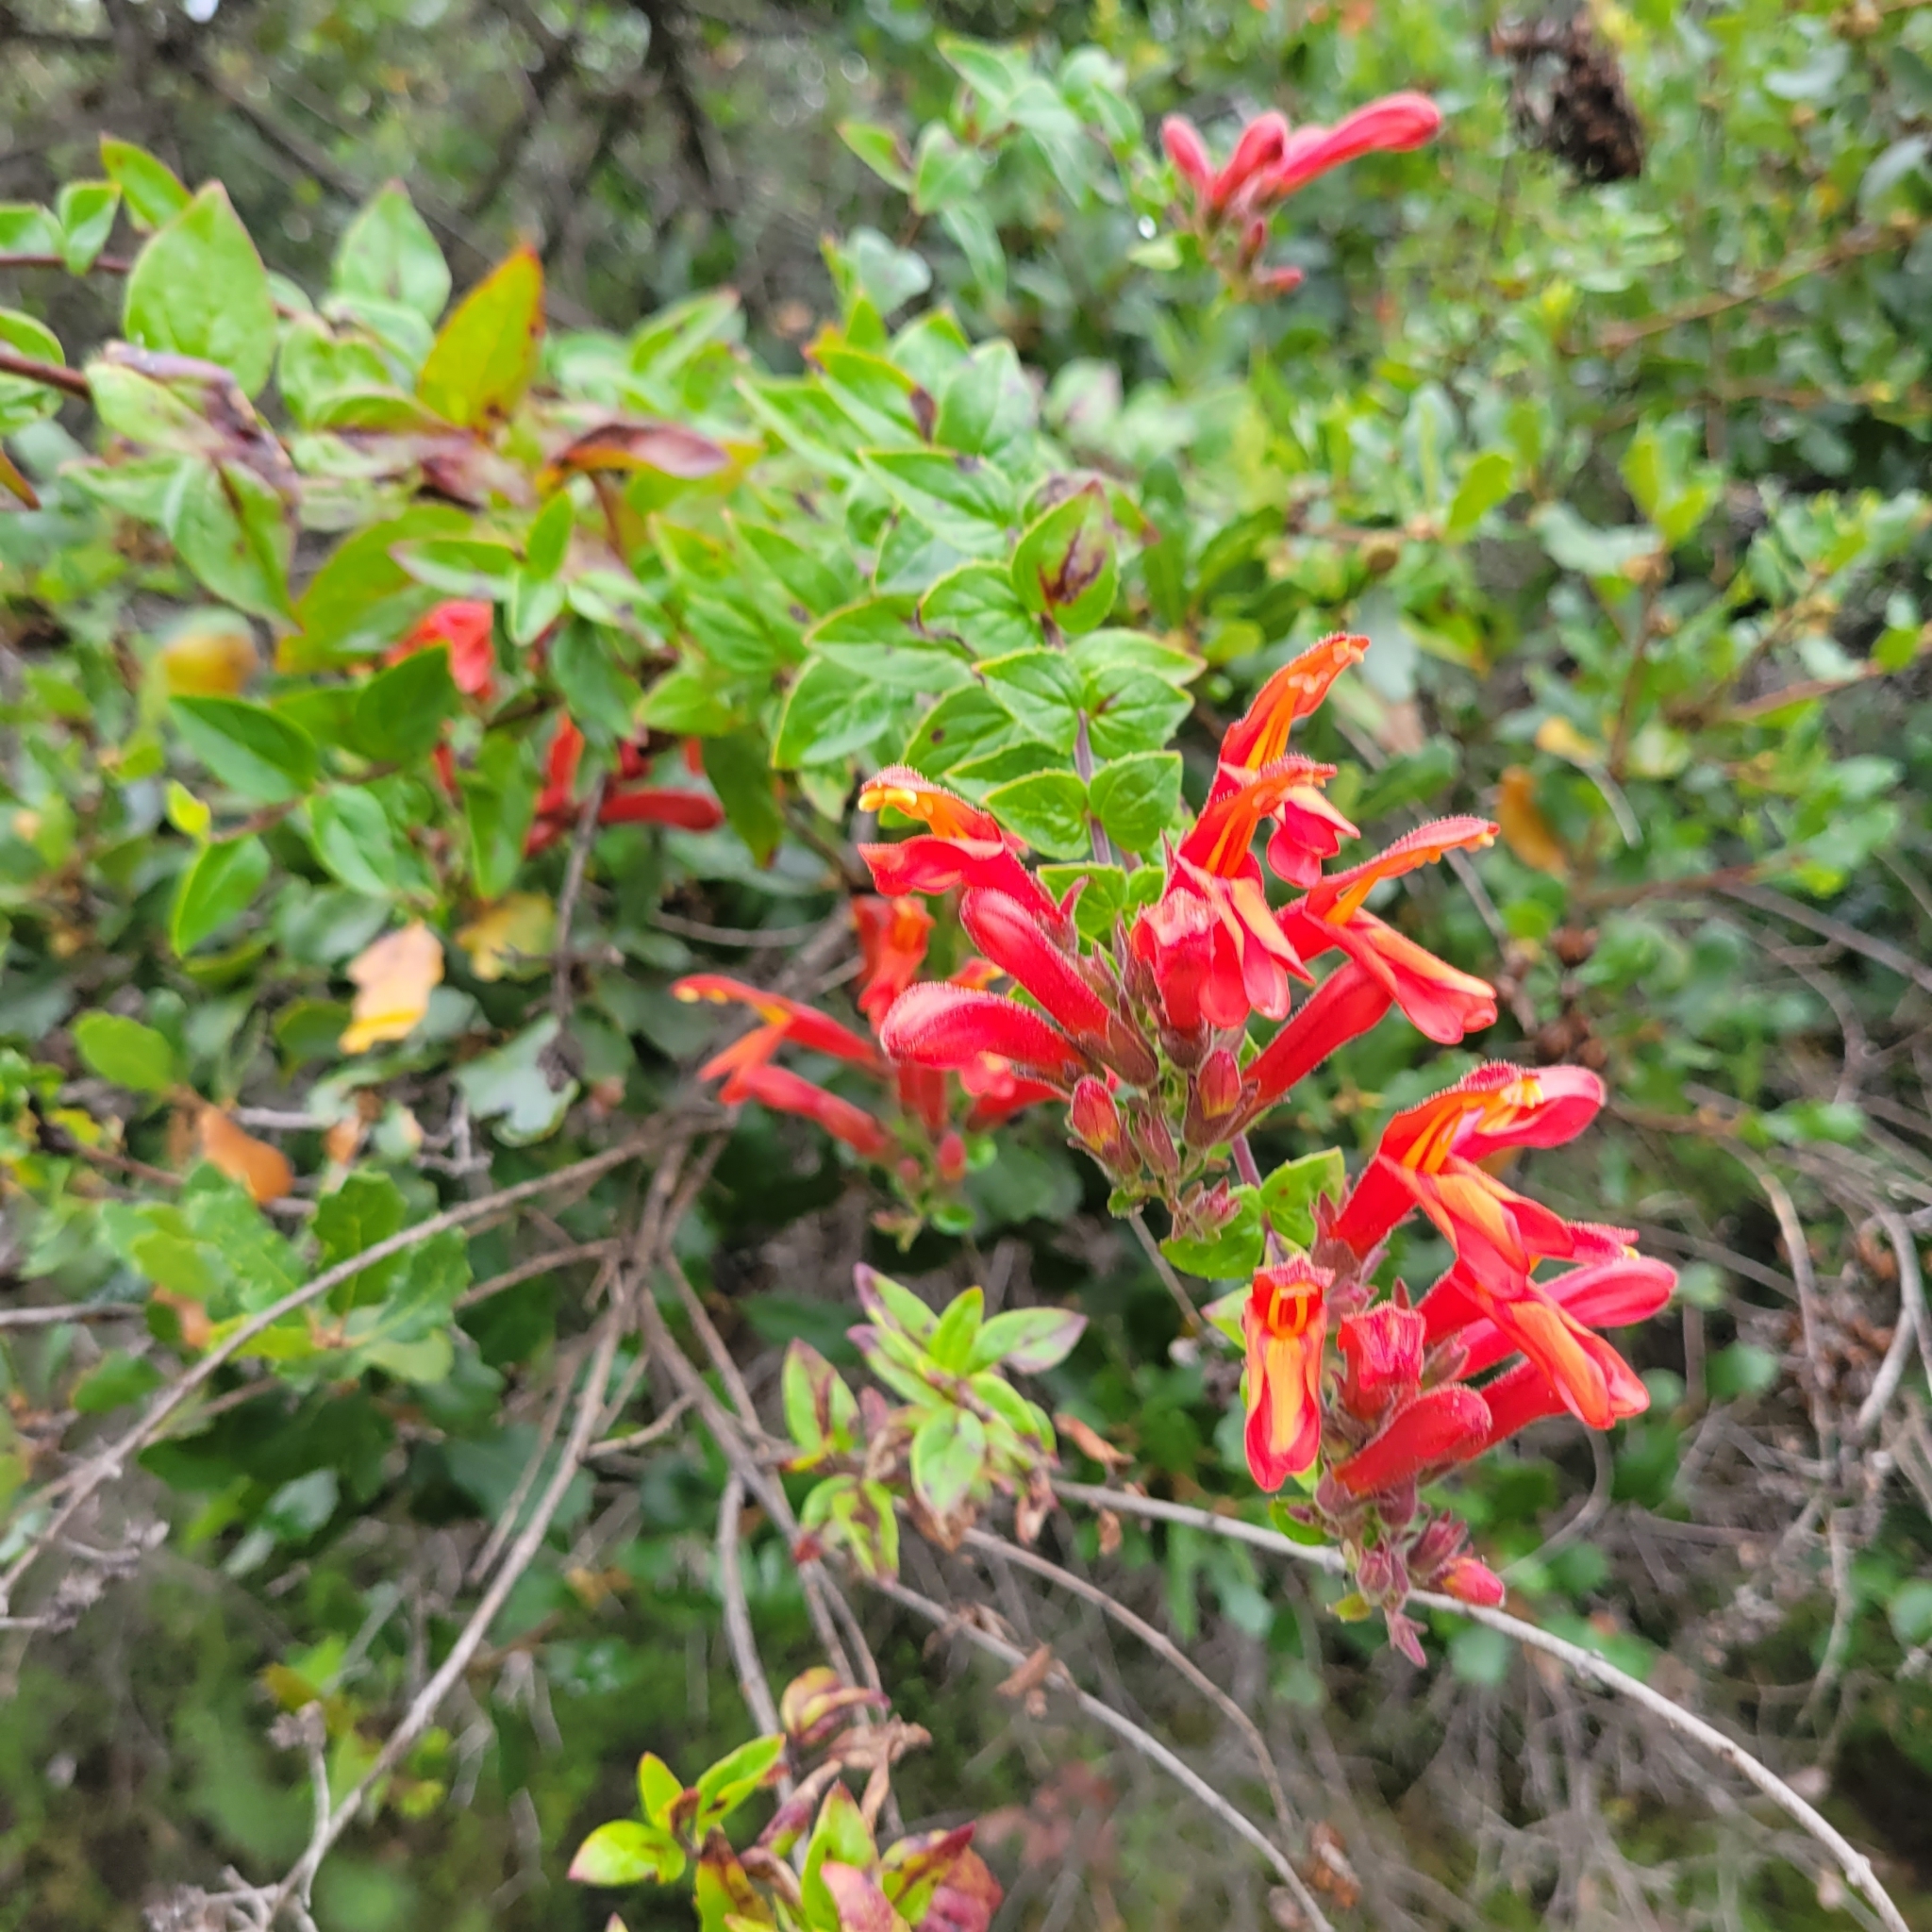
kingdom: Plantae
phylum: Tracheophyta
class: Magnoliopsida
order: Lamiales
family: Plantaginaceae
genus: Keckiella
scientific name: Keckiella cordifolia
